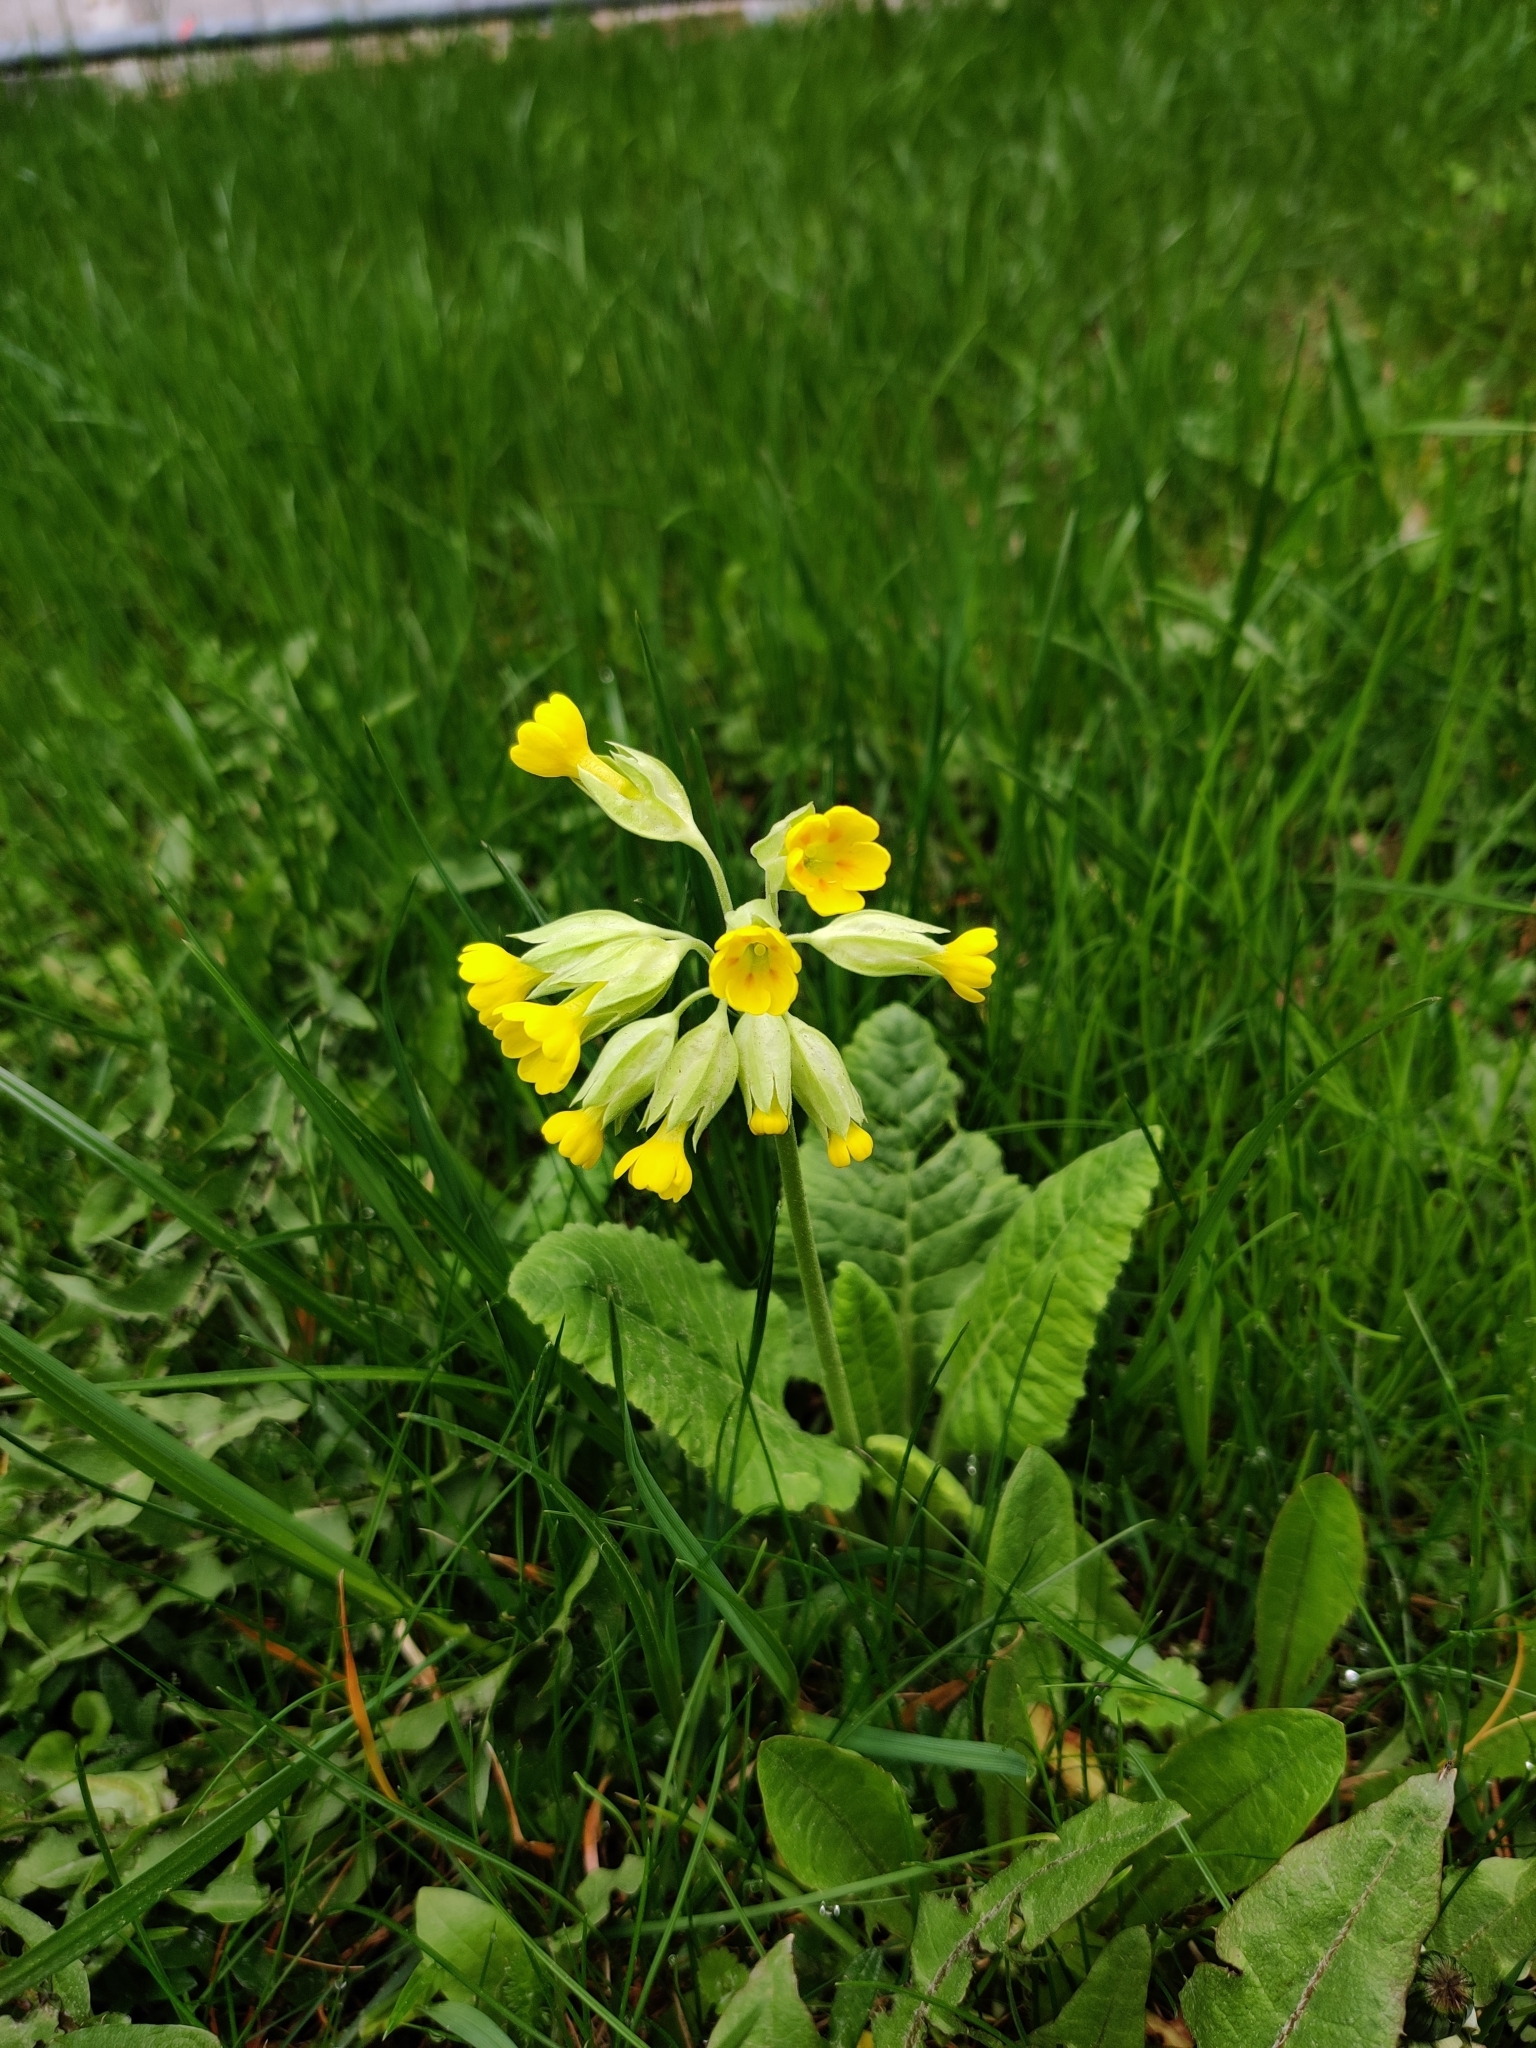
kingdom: Plantae
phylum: Tracheophyta
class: Magnoliopsida
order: Ericales
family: Primulaceae
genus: Primula
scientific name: Primula veris
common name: Cowslip
